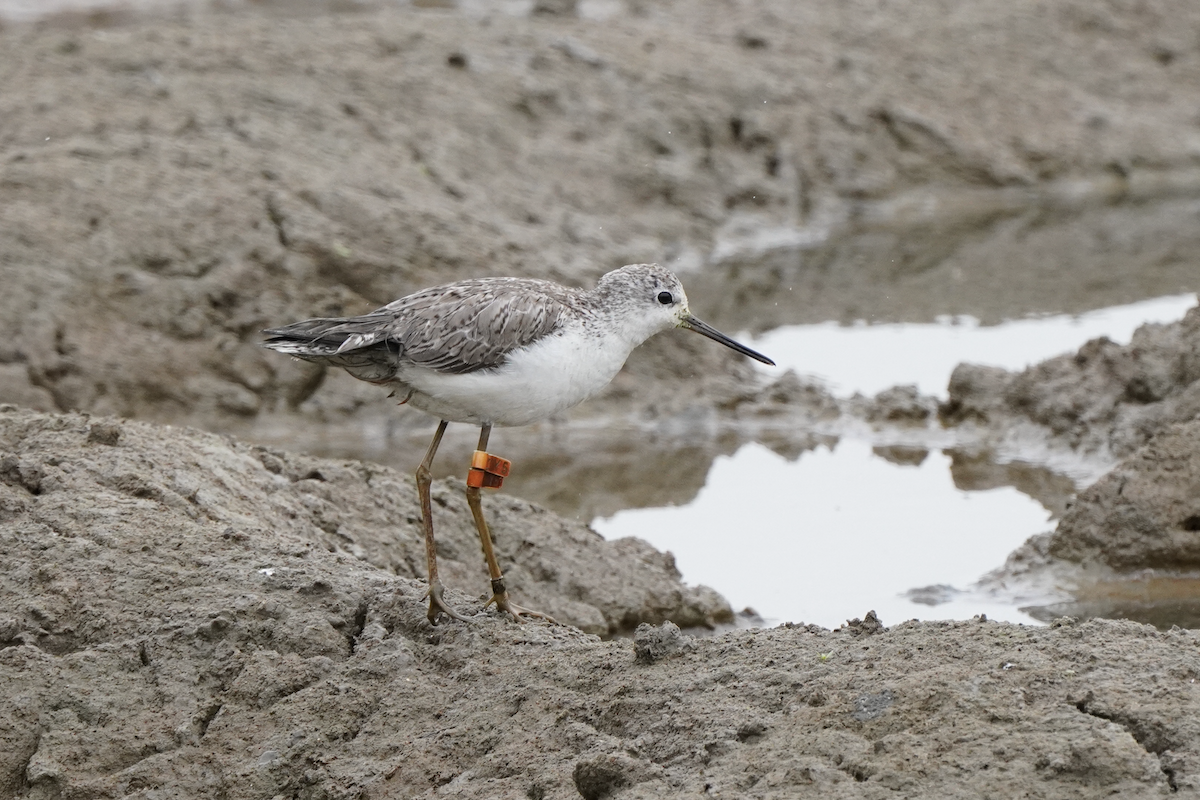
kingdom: Animalia
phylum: Chordata
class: Aves
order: Charadriiformes
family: Scolopacidae
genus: Tringa
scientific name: Tringa stagnatilis
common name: Marsh sandpiper
